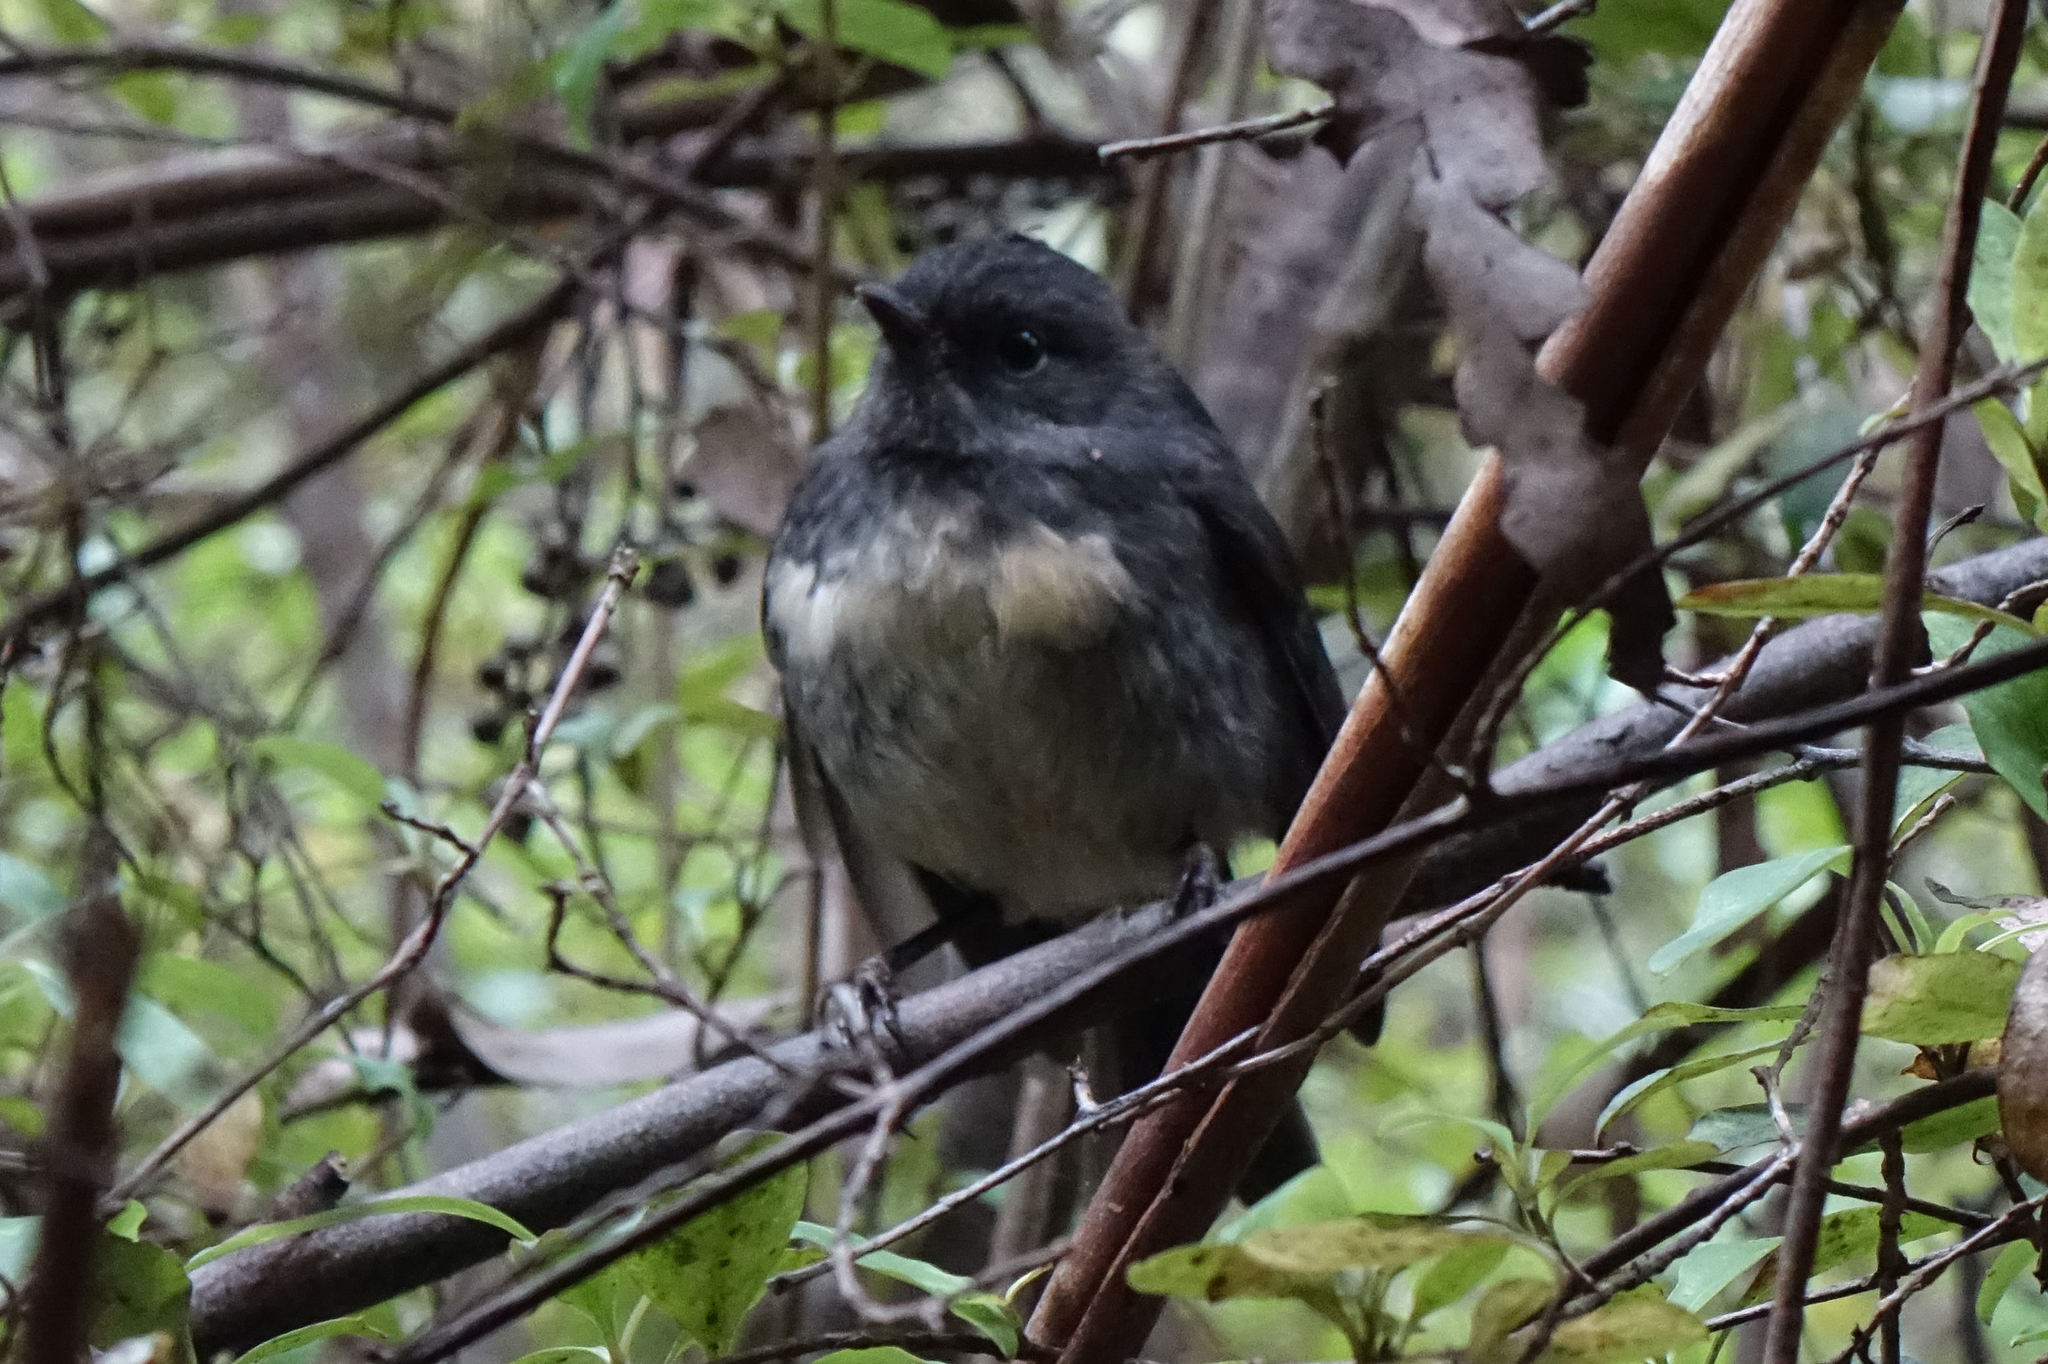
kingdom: Animalia
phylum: Chordata
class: Aves
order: Passeriformes
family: Petroicidae
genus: Petroica
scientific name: Petroica australis
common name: New zealand robin
